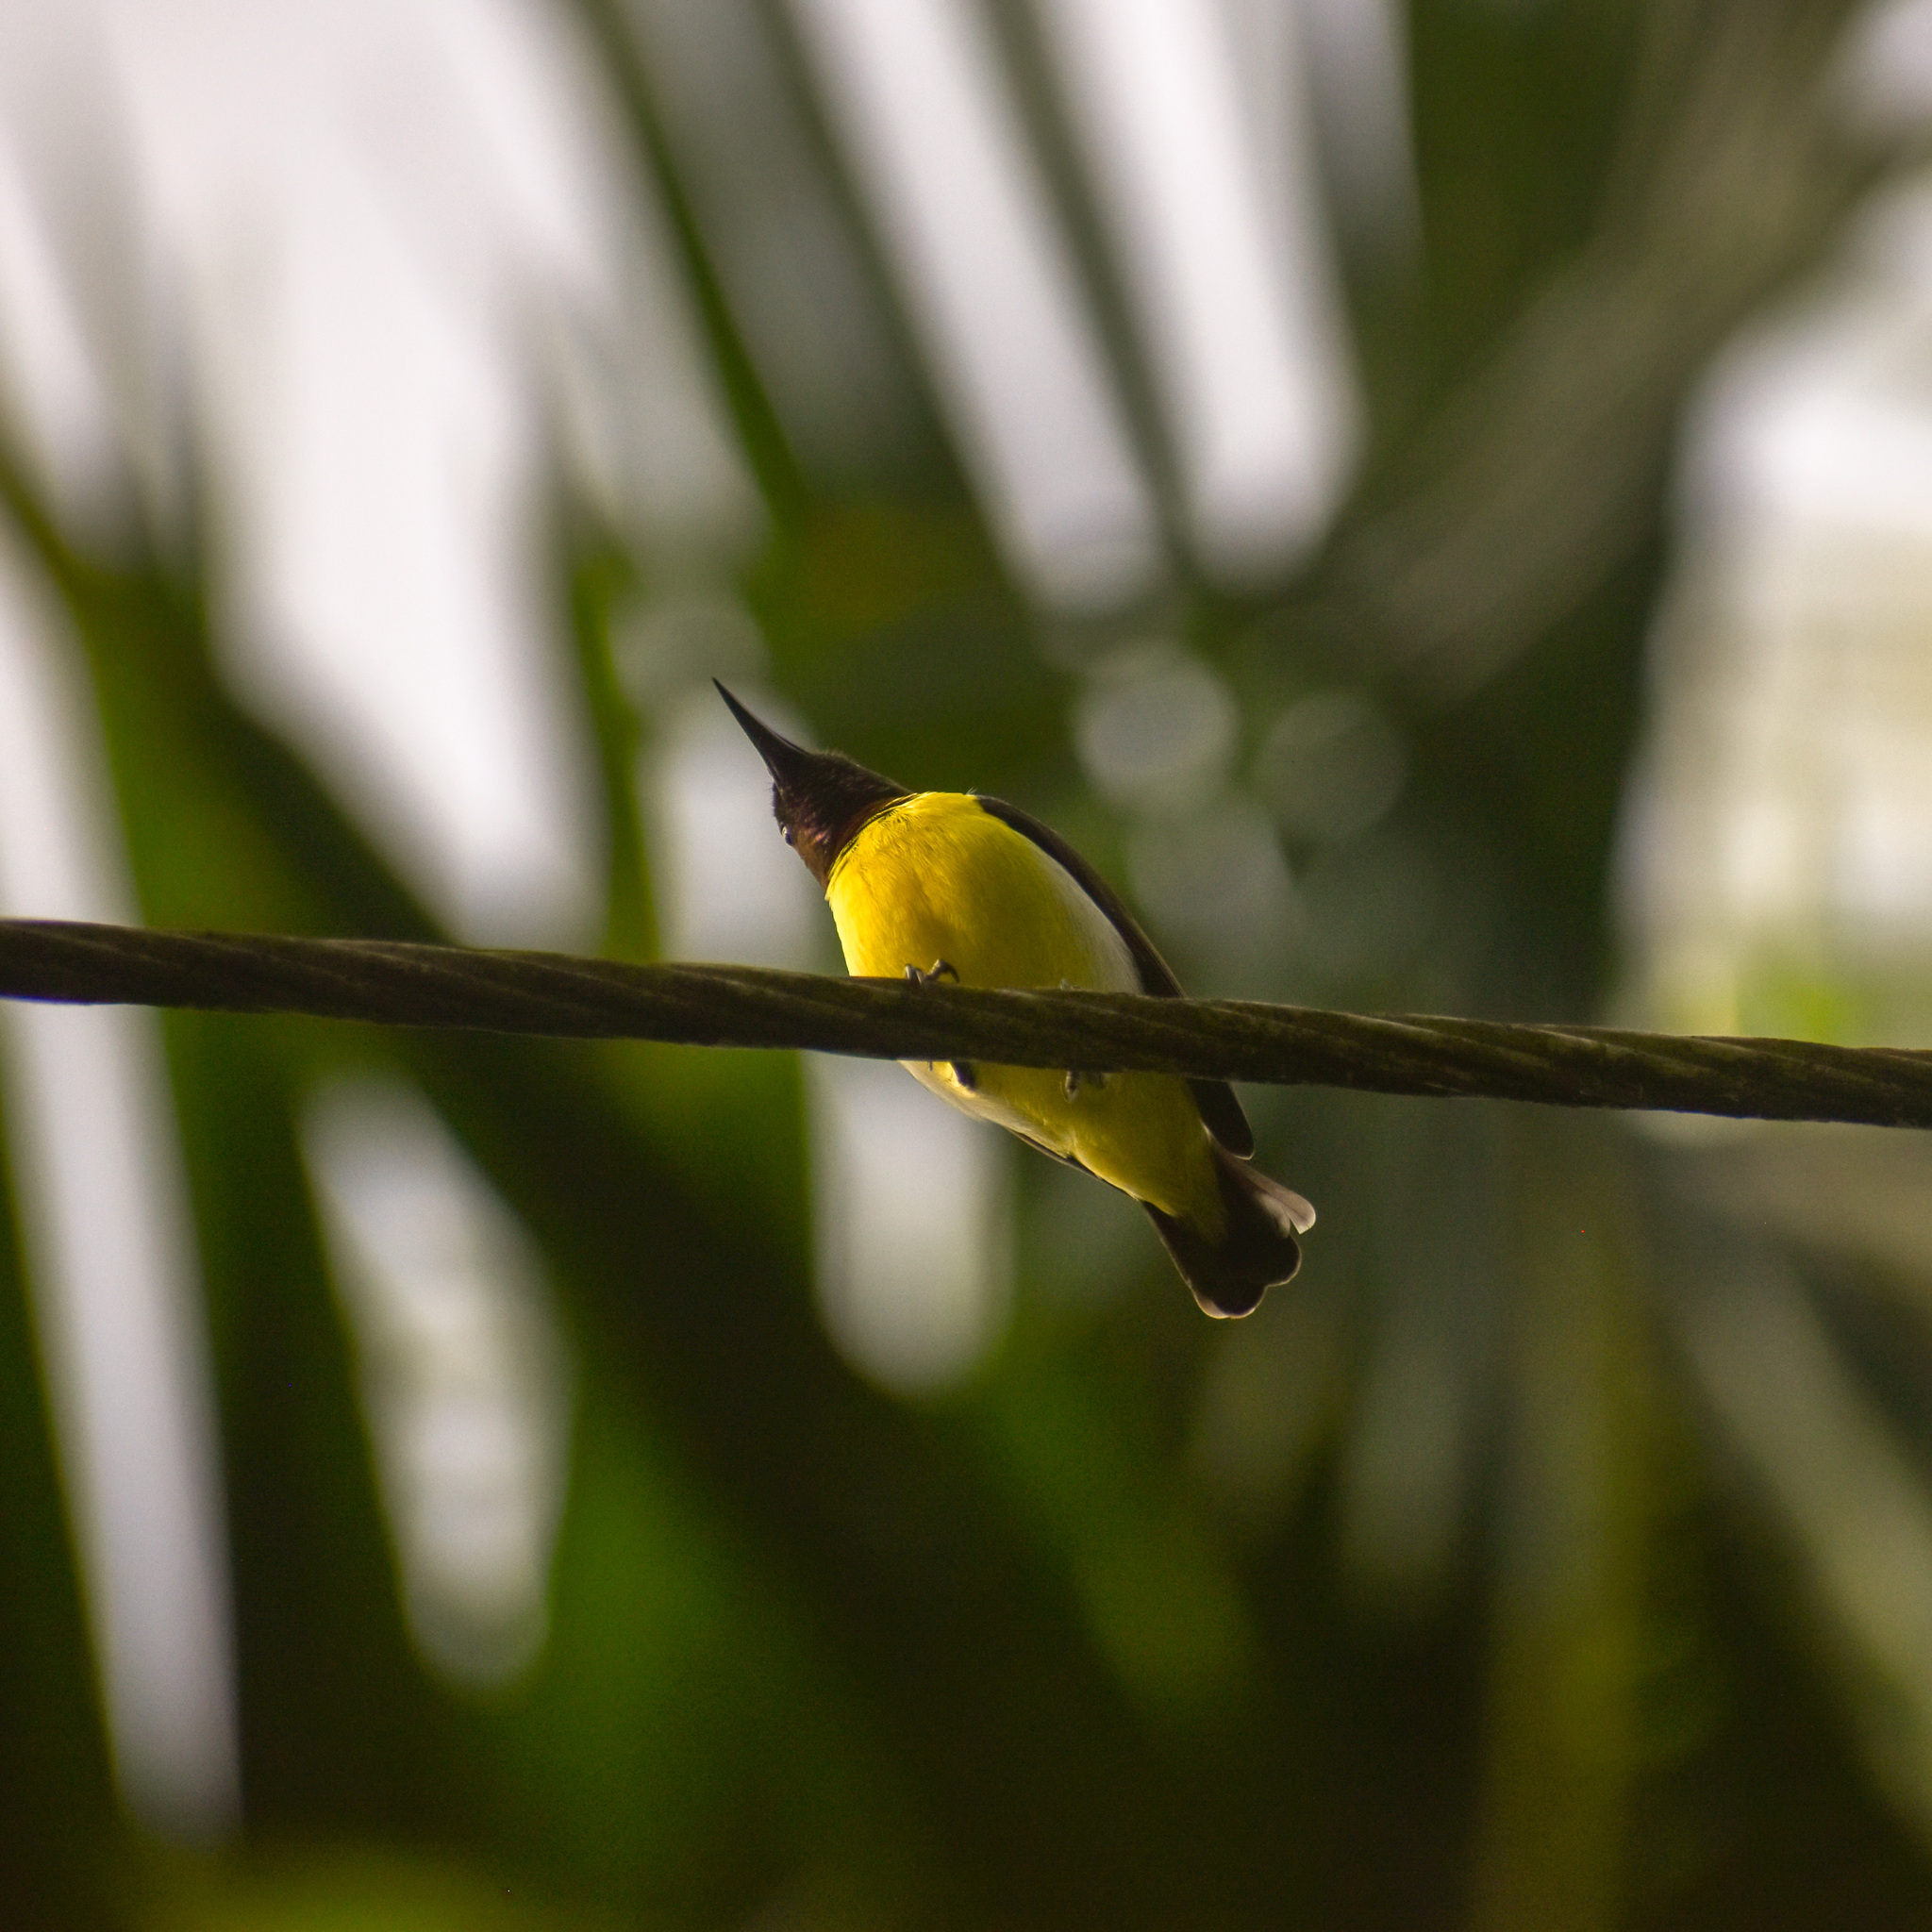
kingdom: Animalia
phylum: Chordata
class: Aves
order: Passeriformes
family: Nectariniidae
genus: Leptocoma
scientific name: Leptocoma zeylonica
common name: Purple-rumped sunbird
